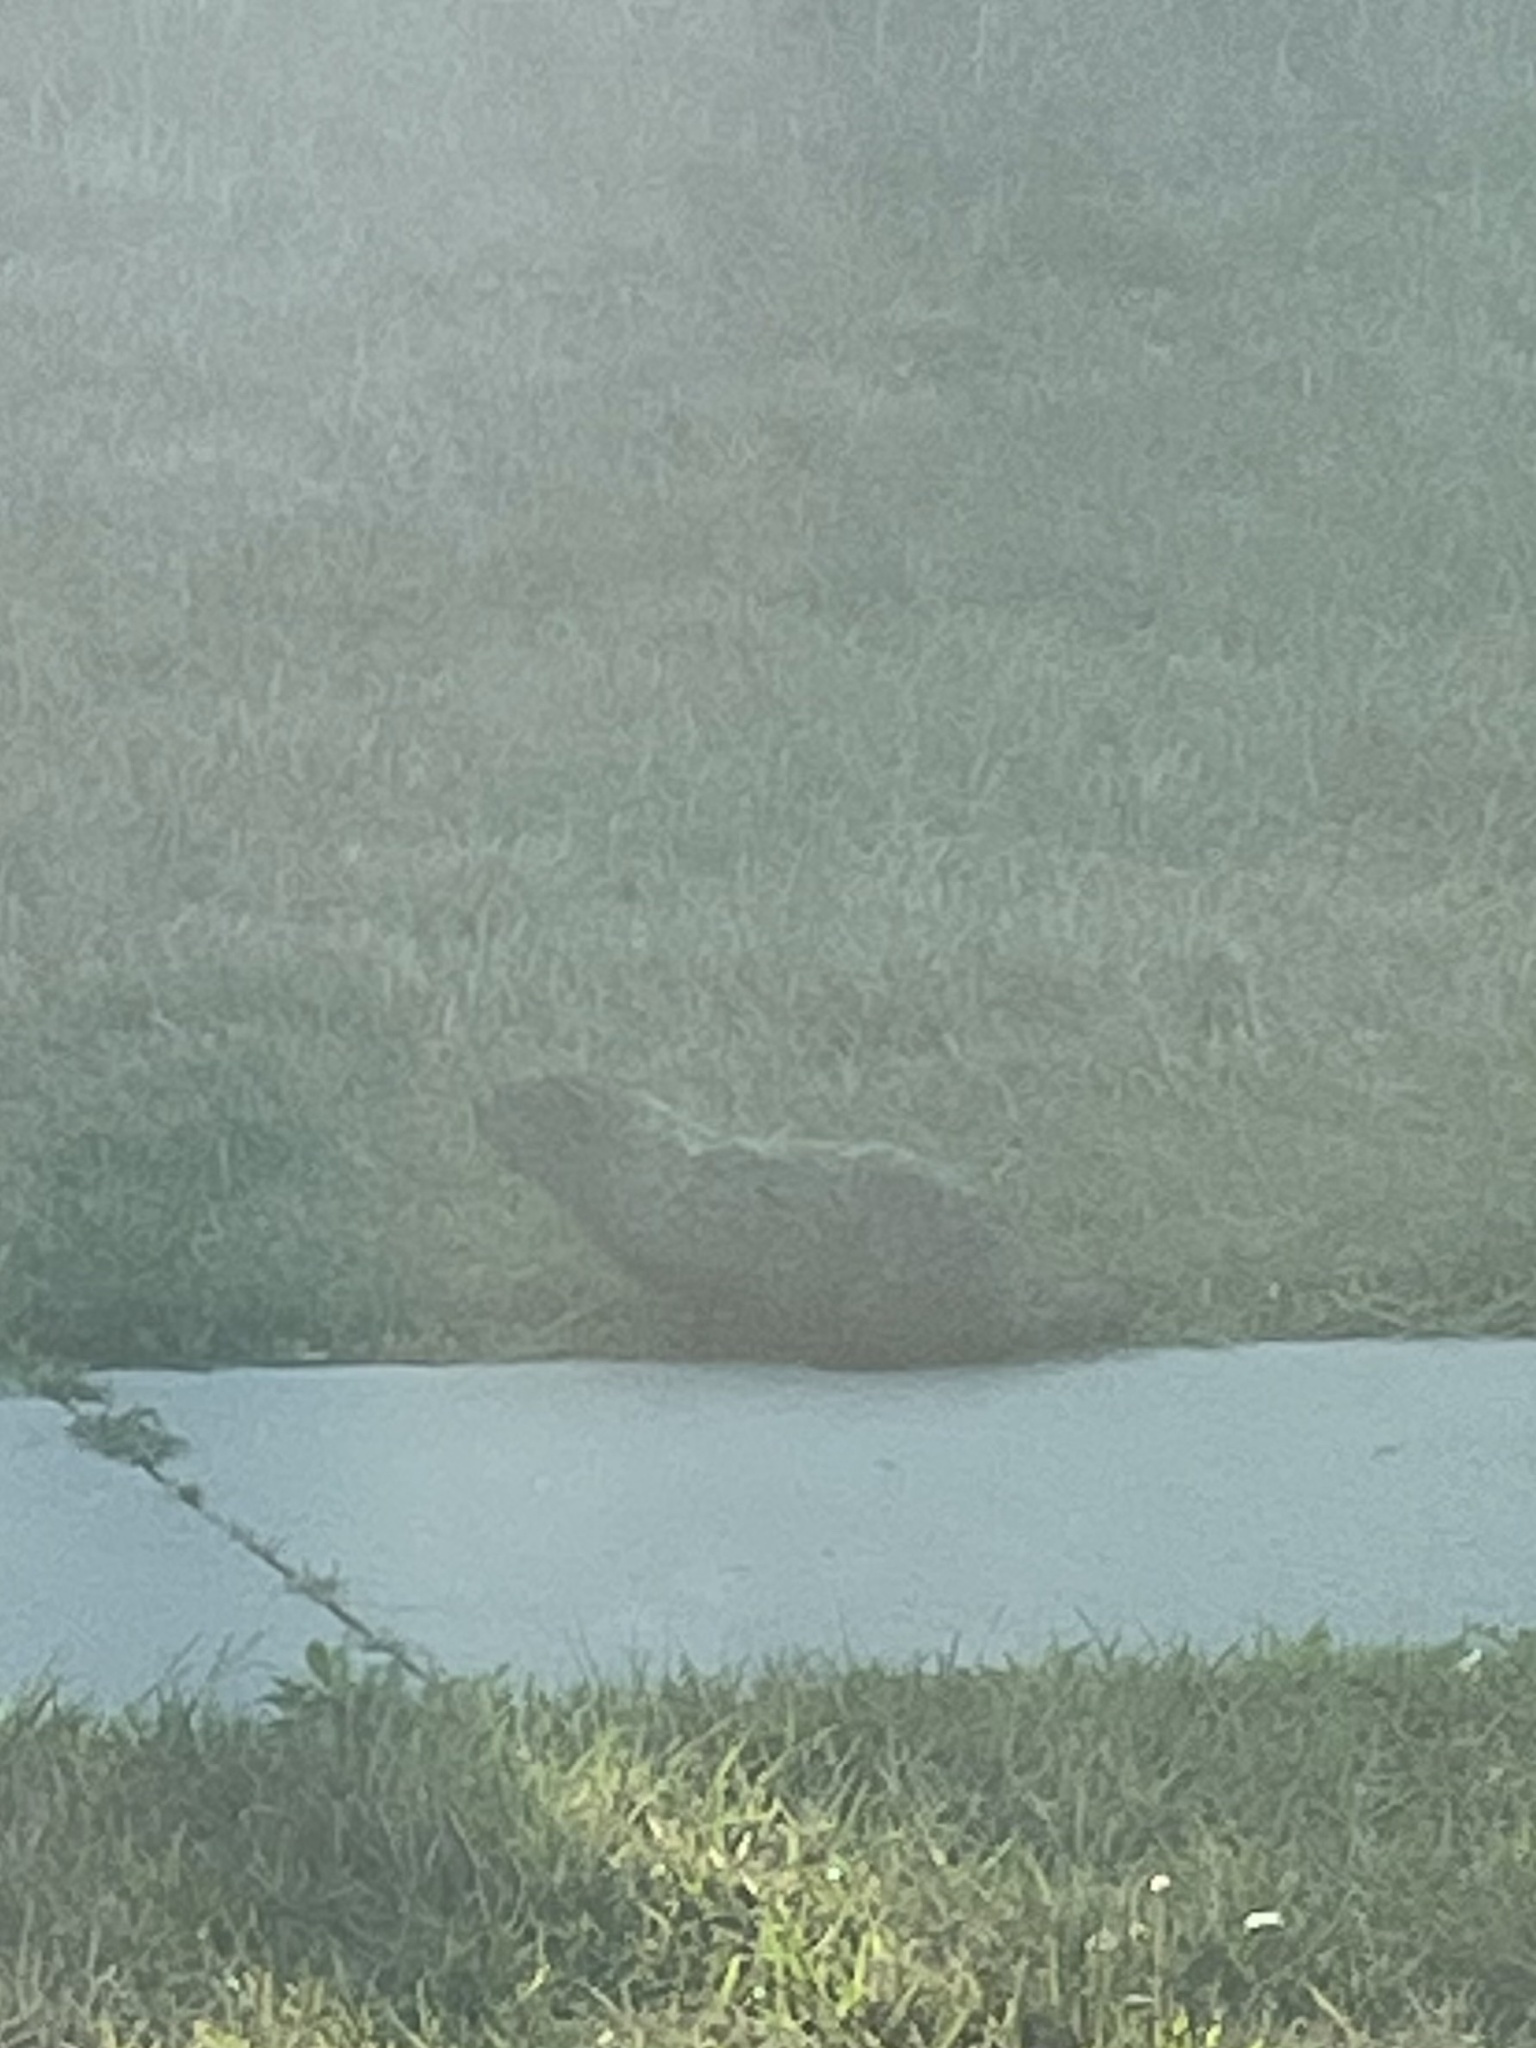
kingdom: Animalia
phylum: Chordata
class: Mammalia
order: Rodentia
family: Sciuridae
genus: Marmota
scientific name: Marmota monax
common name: Groundhog
